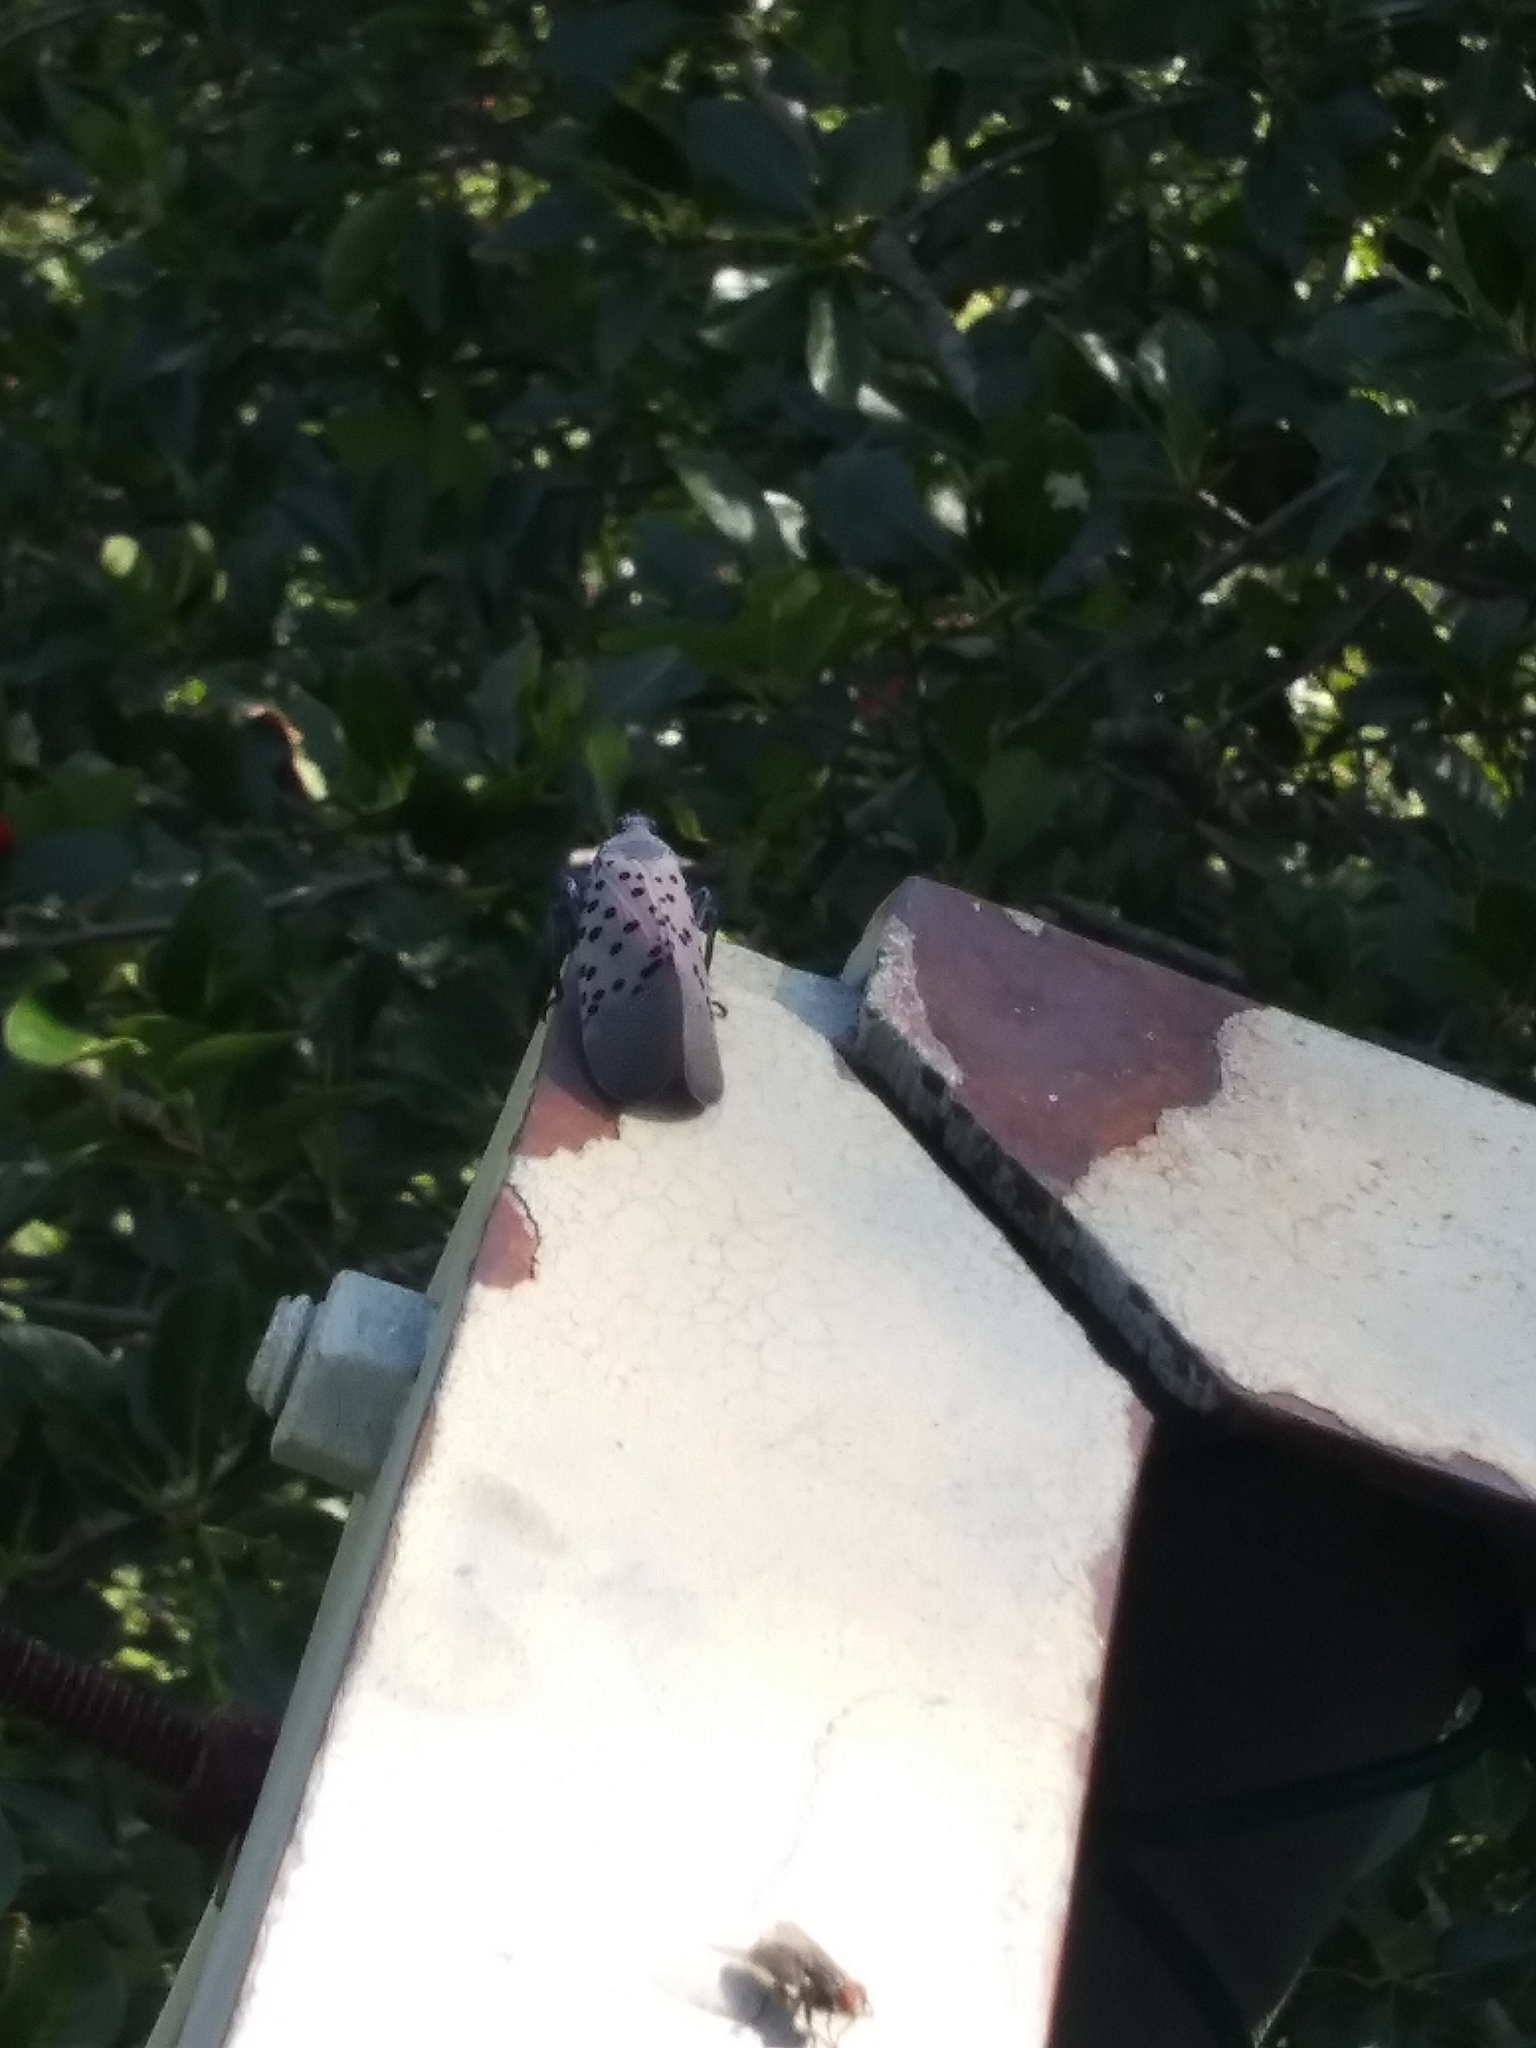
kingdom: Animalia
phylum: Arthropoda
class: Insecta
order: Hemiptera
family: Fulgoridae
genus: Lycorma
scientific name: Lycorma delicatula
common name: Spotted lanternfly
